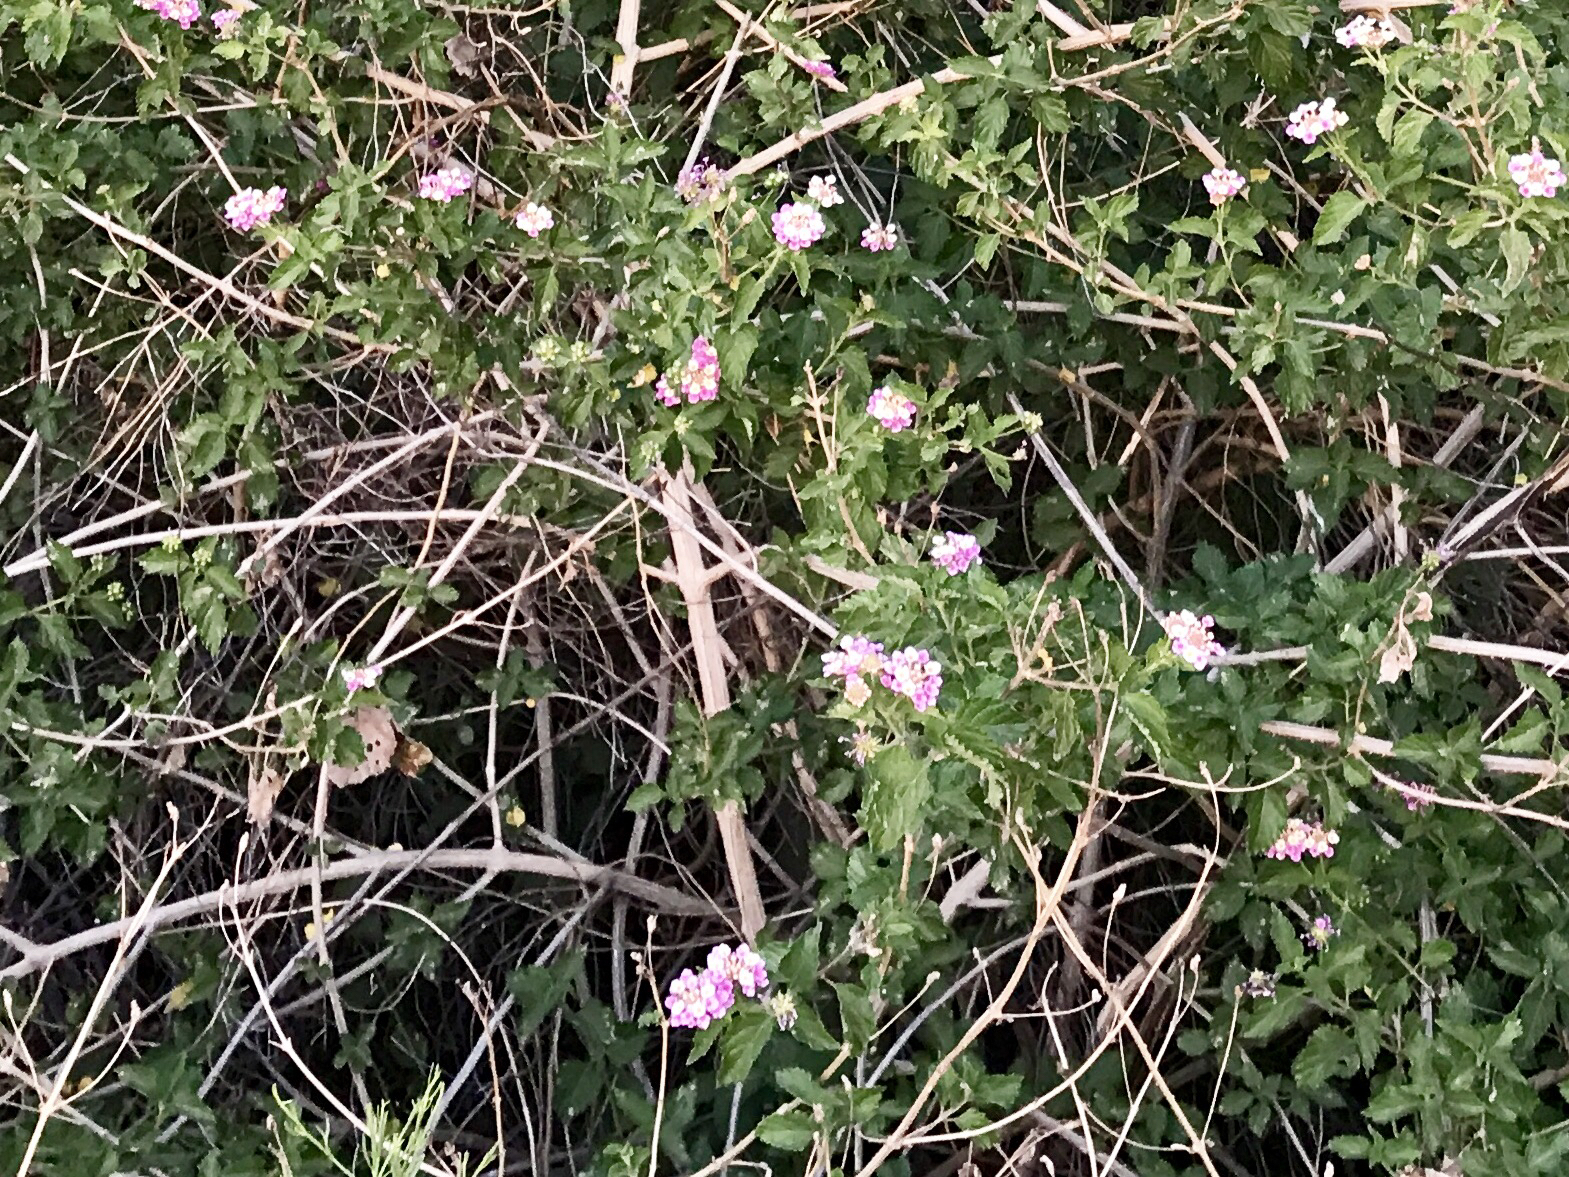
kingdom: Plantae
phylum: Tracheophyta
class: Magnoliopsida
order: Lamiales
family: Verbenaceae
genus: Lantana
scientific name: Lantana montevidensis
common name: Trailing shrubverbena
